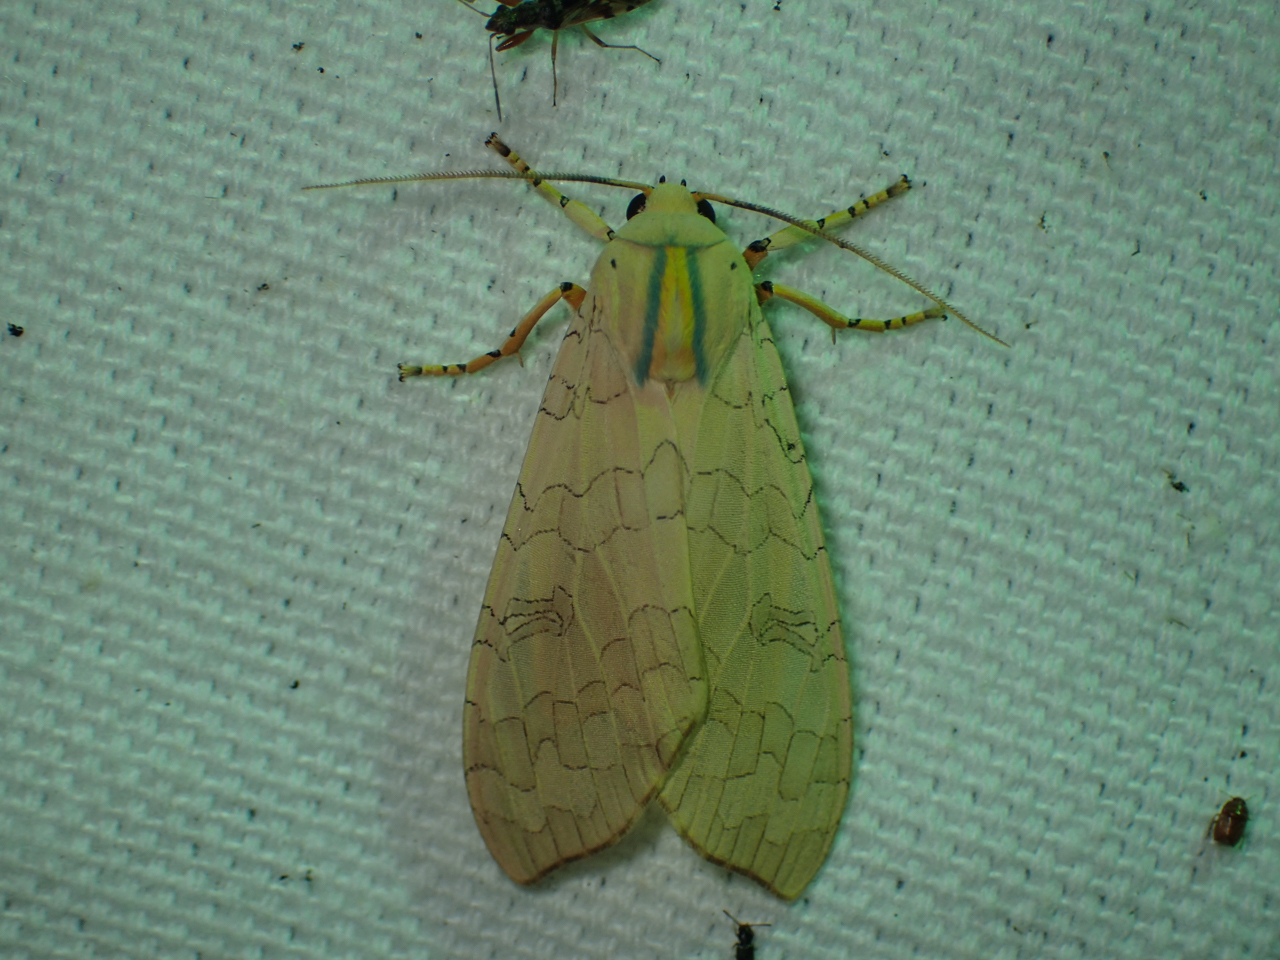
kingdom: Animalia
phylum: Arthropoda
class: Insecta
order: Lepidoptera
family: Erebidae
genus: Halysidota
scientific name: Halysidota
